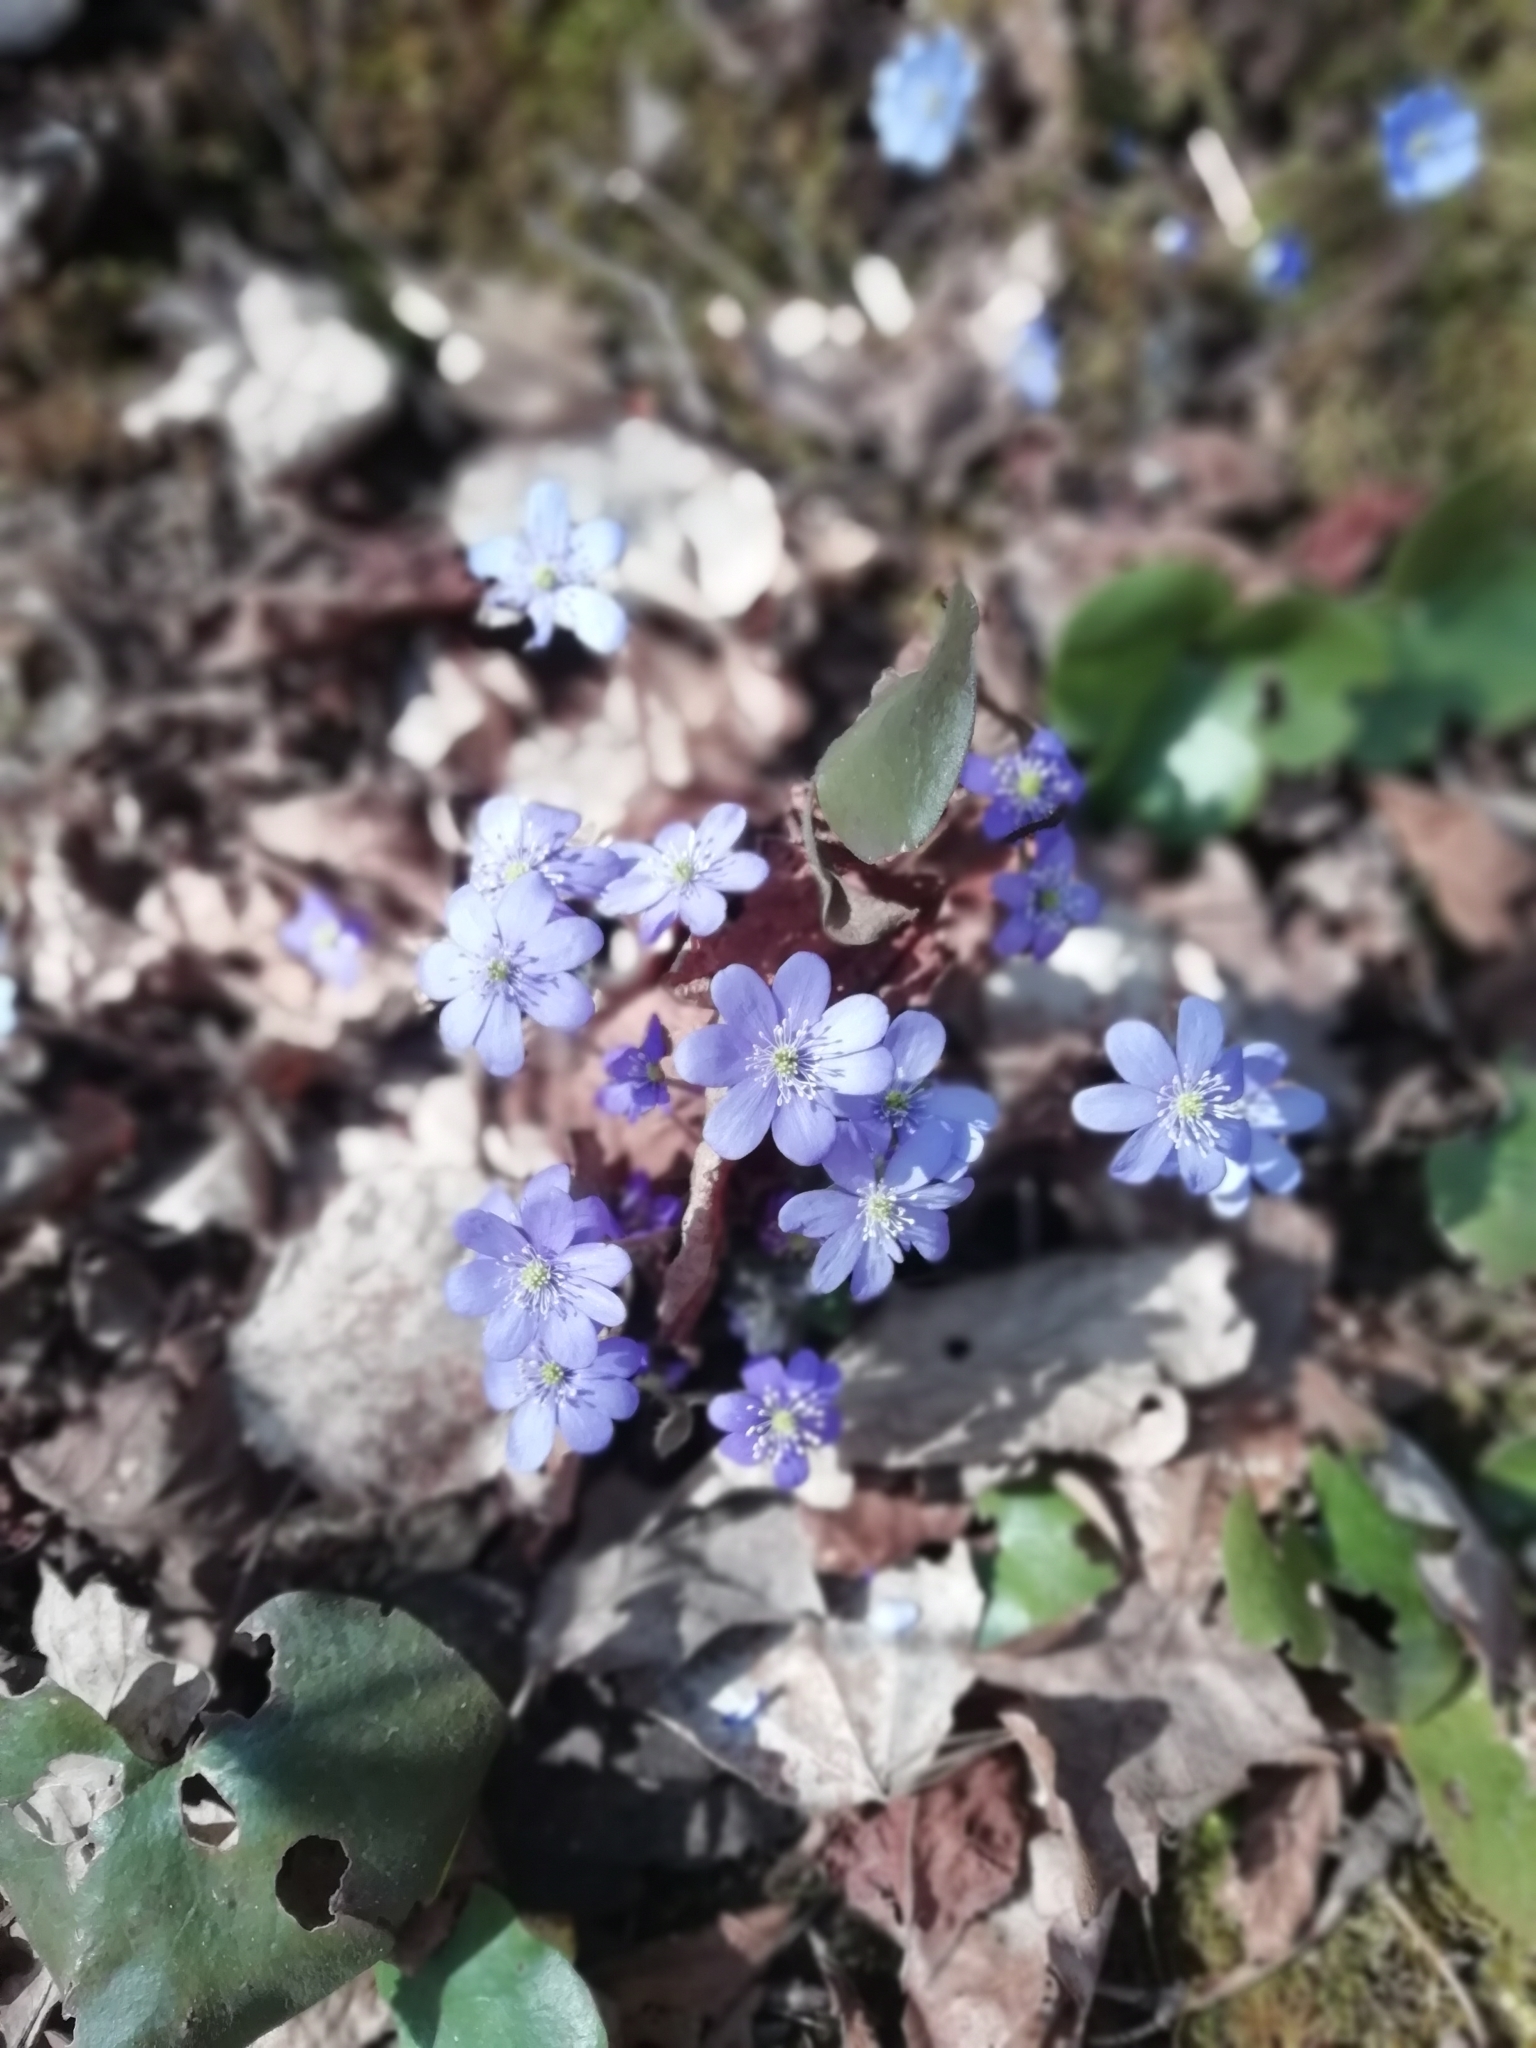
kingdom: Plantae
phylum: Tracheophyta
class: Magnoliopsida
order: Ranunculales
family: Ranunculaceae
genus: Hepatica
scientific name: Hepatica nobilis
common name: Liverleaf
